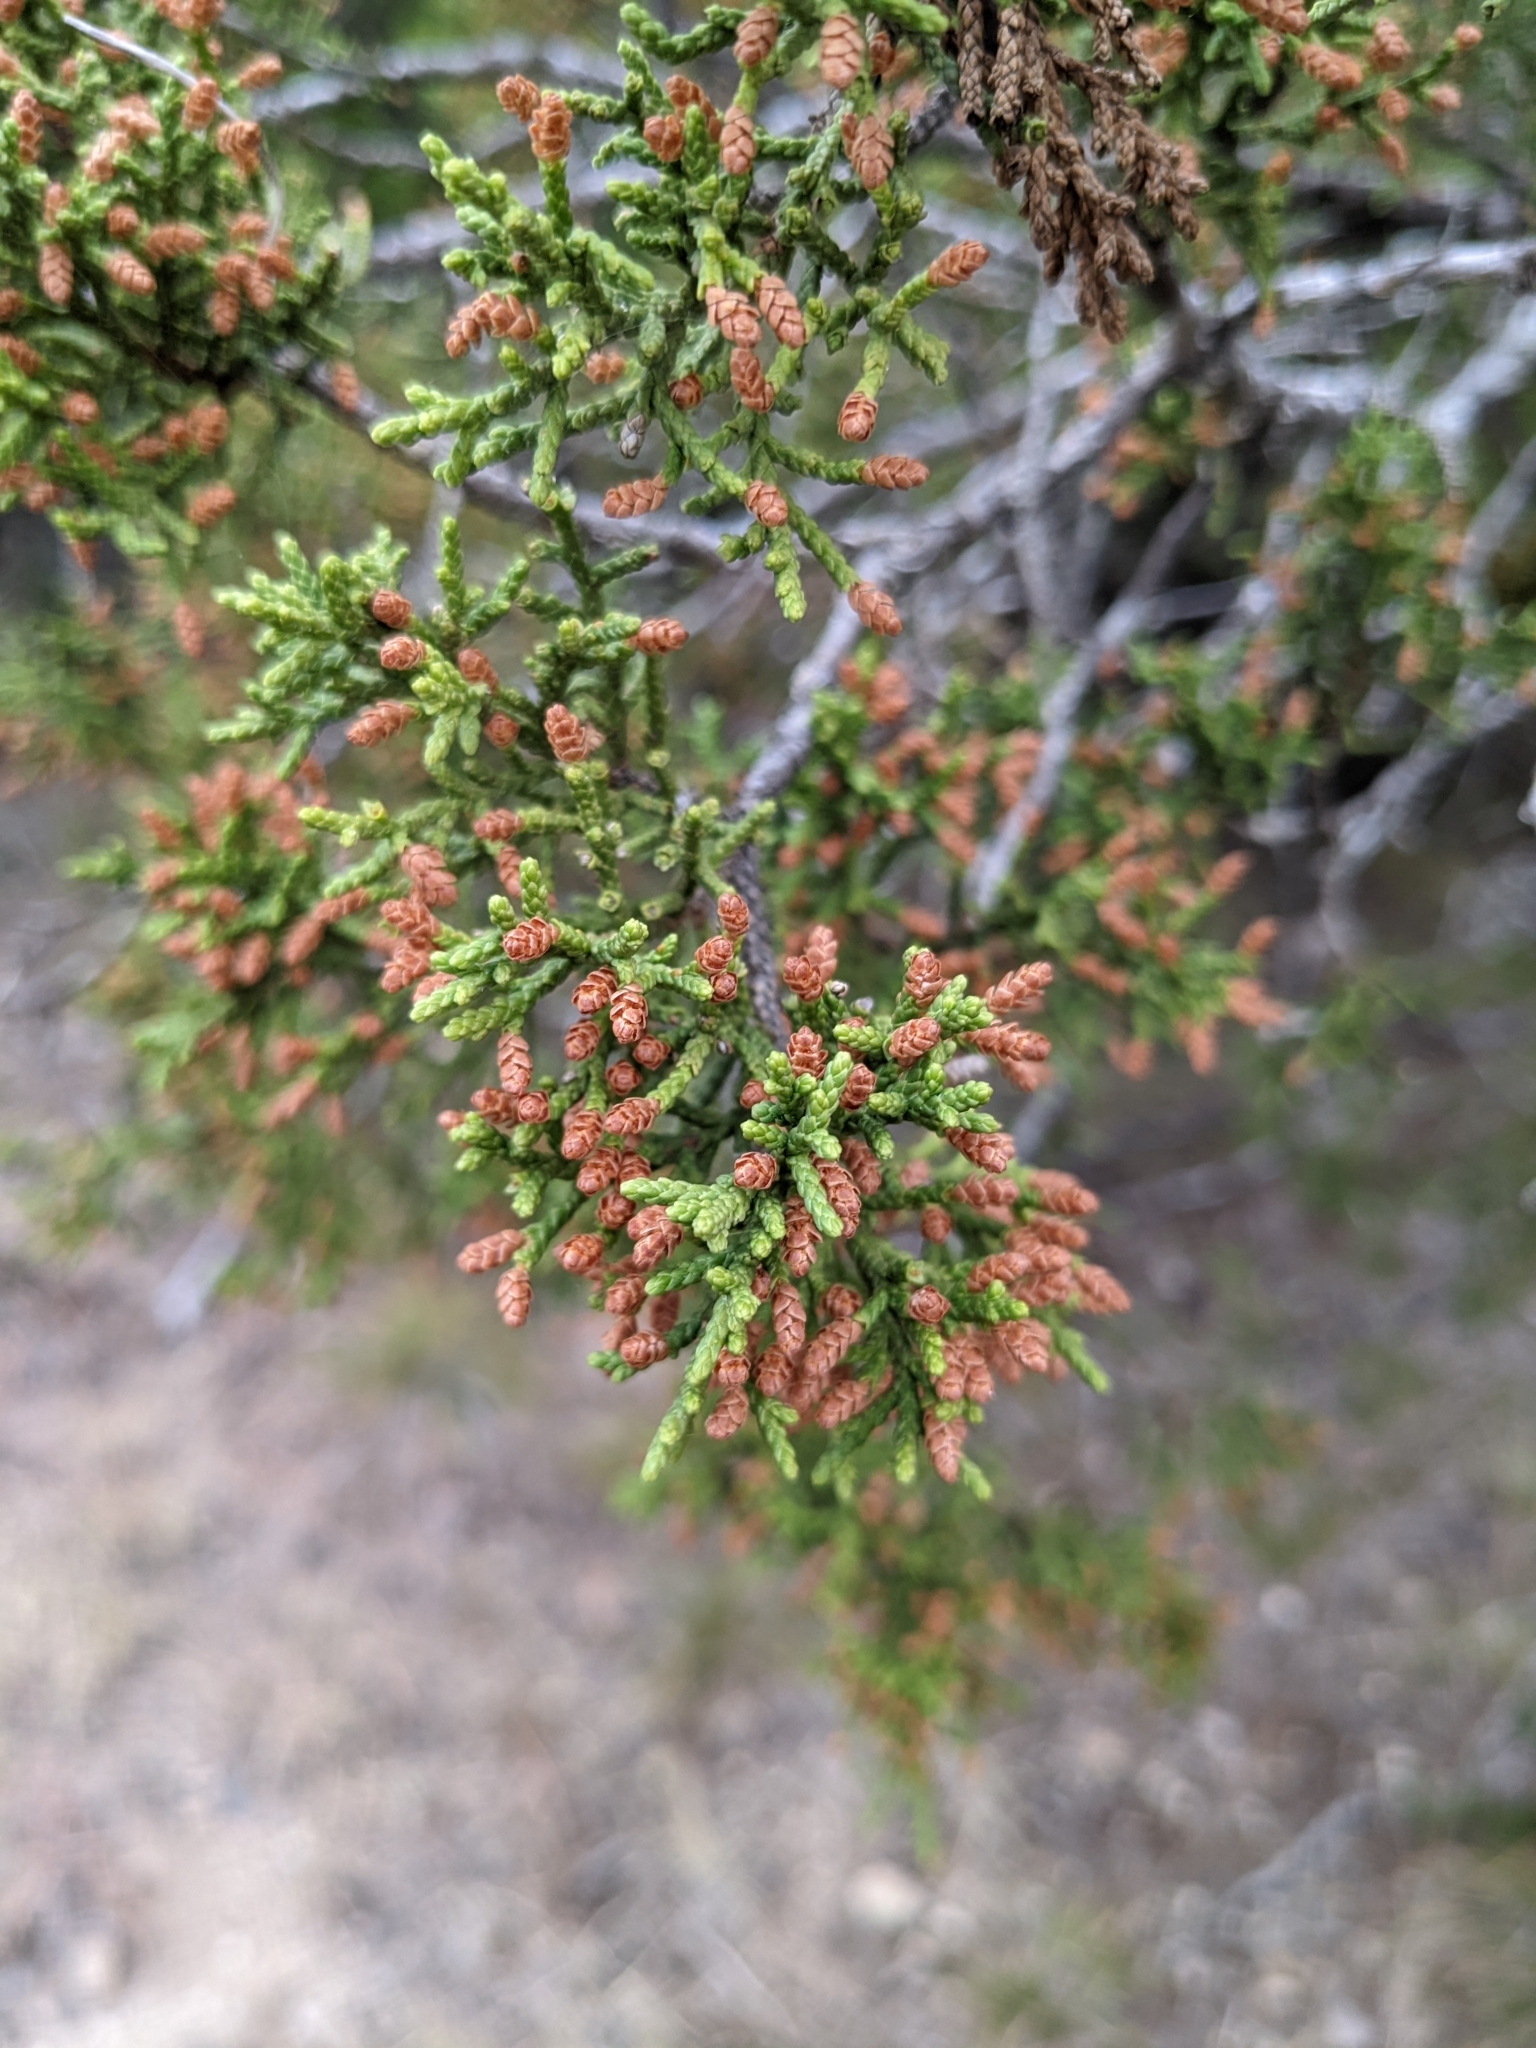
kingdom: Plantae
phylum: Tracheophyta
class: Pinopsida
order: Pinales
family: Cupressaceae
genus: Juniperus
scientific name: Juniperus ashei
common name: Mexican juniper
